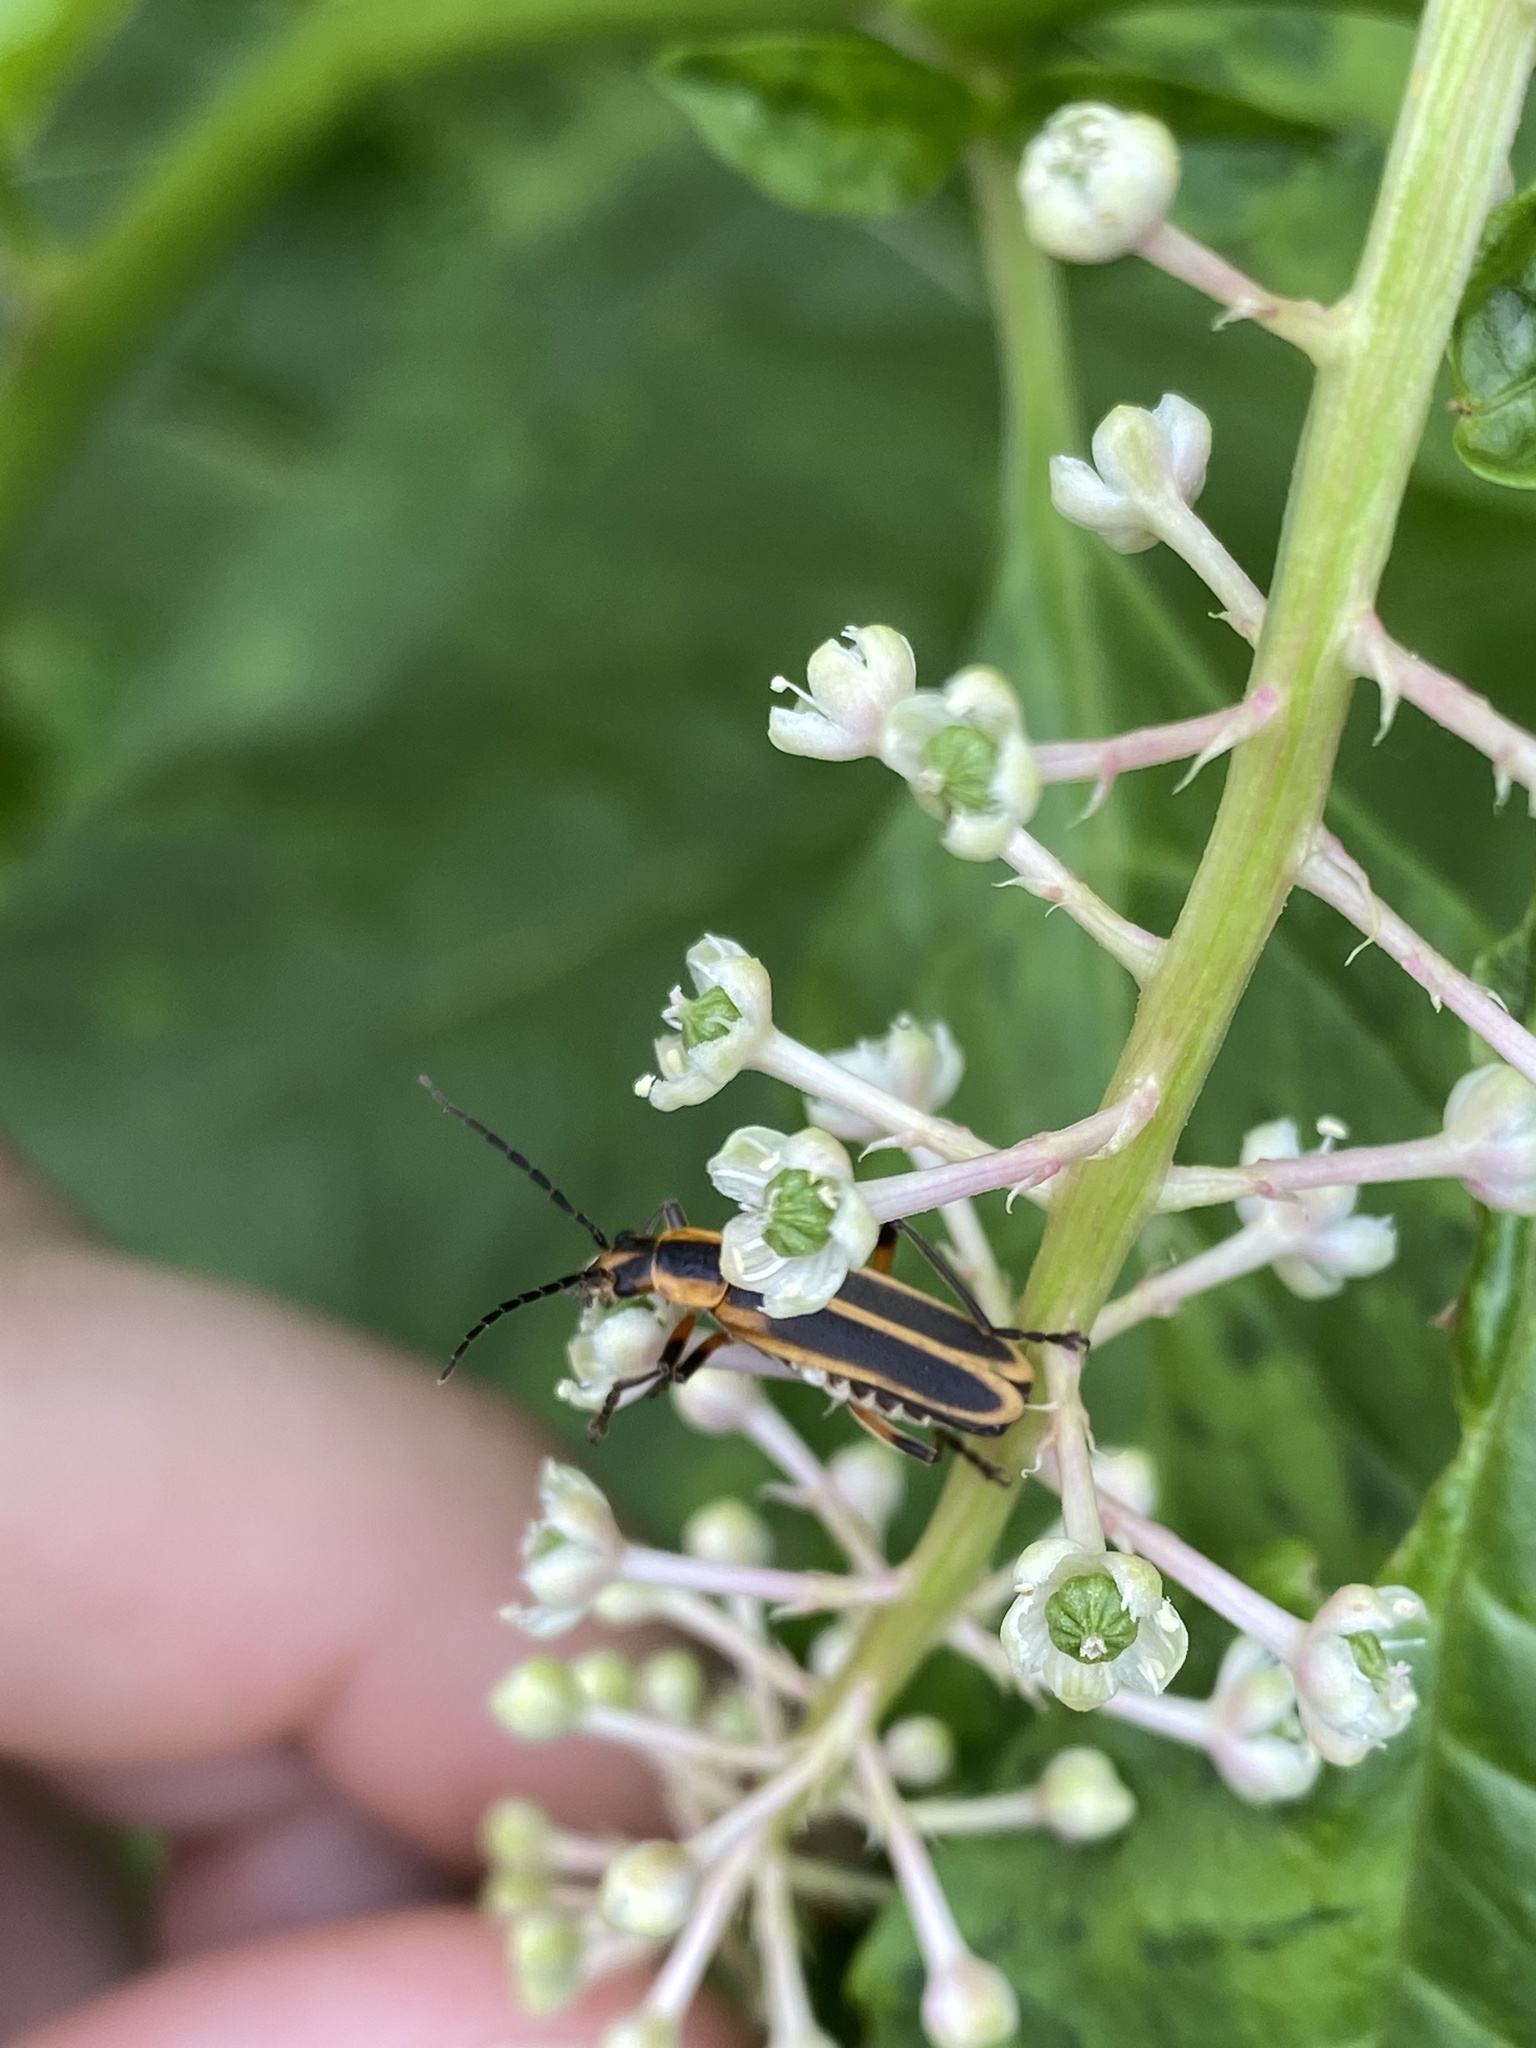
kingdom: Animalia
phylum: Arthropoda
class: Insecta
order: Coleoptera
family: Cantharidae
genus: Chauliognathus
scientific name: Chauliognathus marginatus
